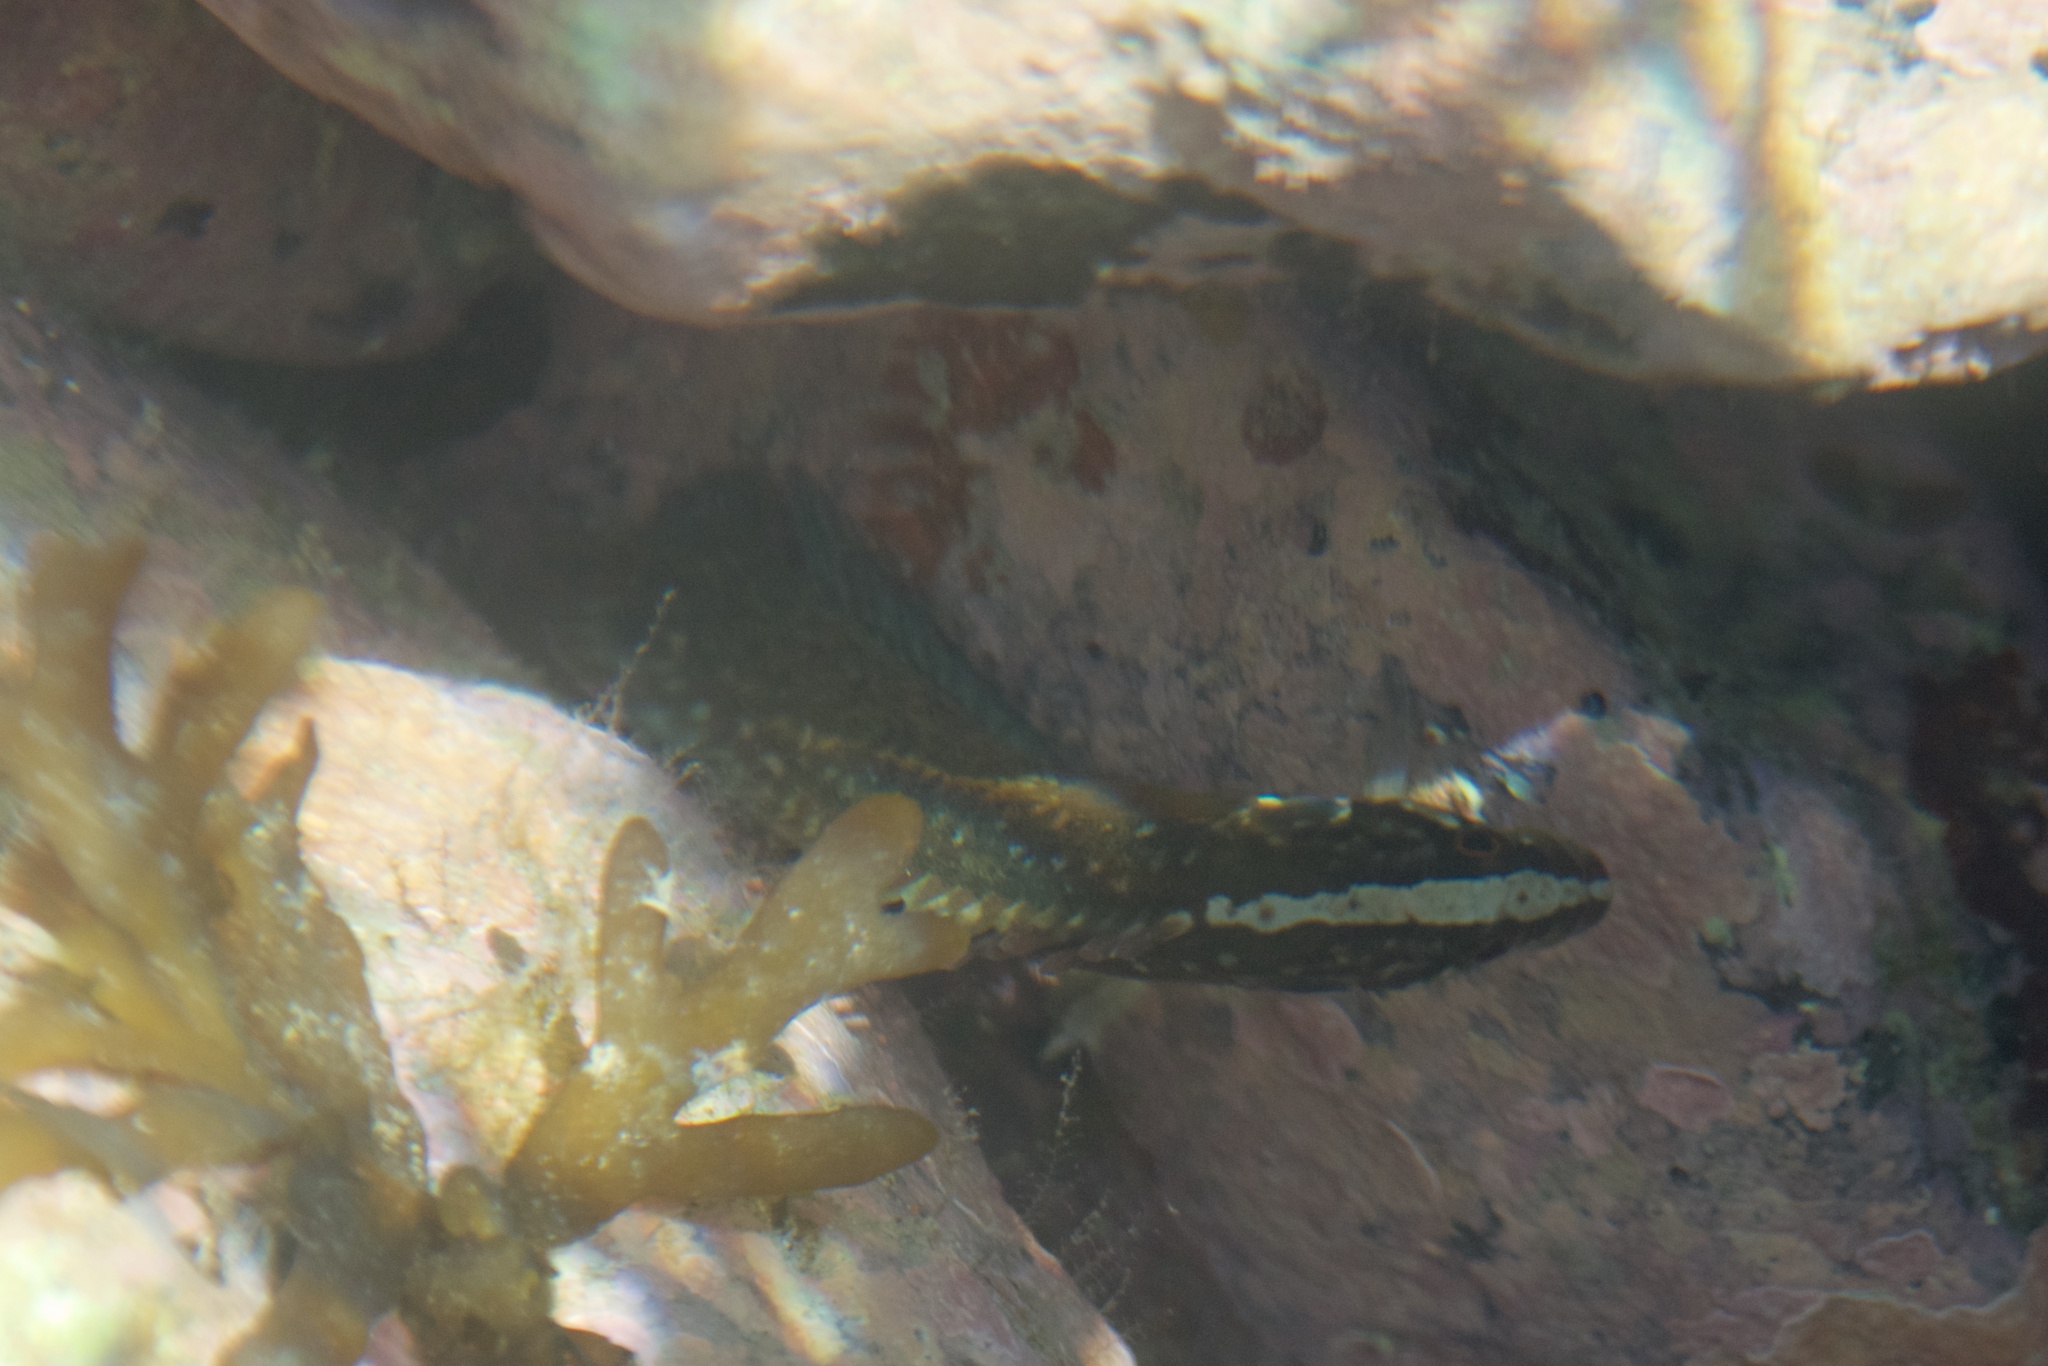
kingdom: Animalia
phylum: Chordata
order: Perciformes
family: Plesiopidae
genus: Acanthoclinus
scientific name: Acanthoclinus fuscus
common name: Olive rockfish
